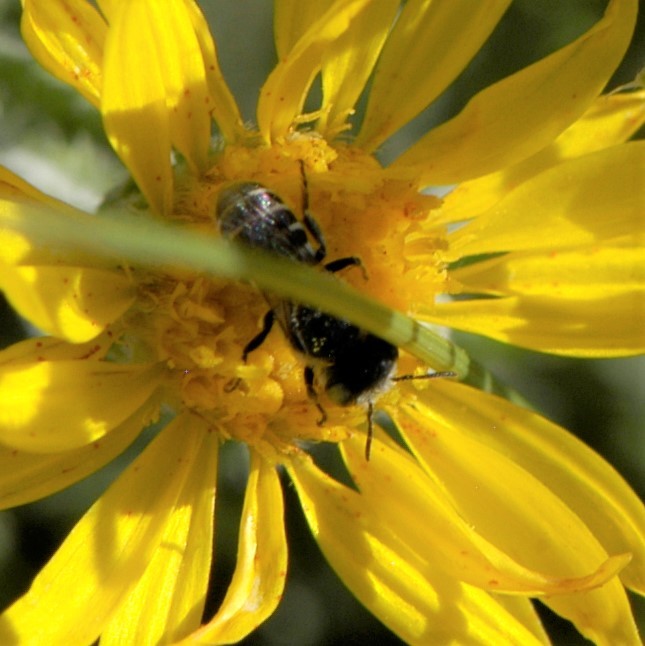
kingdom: Animalia
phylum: Arthropoda
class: Insecta
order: Hymenoptera
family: Megachilidae
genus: Ashmeadiella
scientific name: Ashmeadiella
